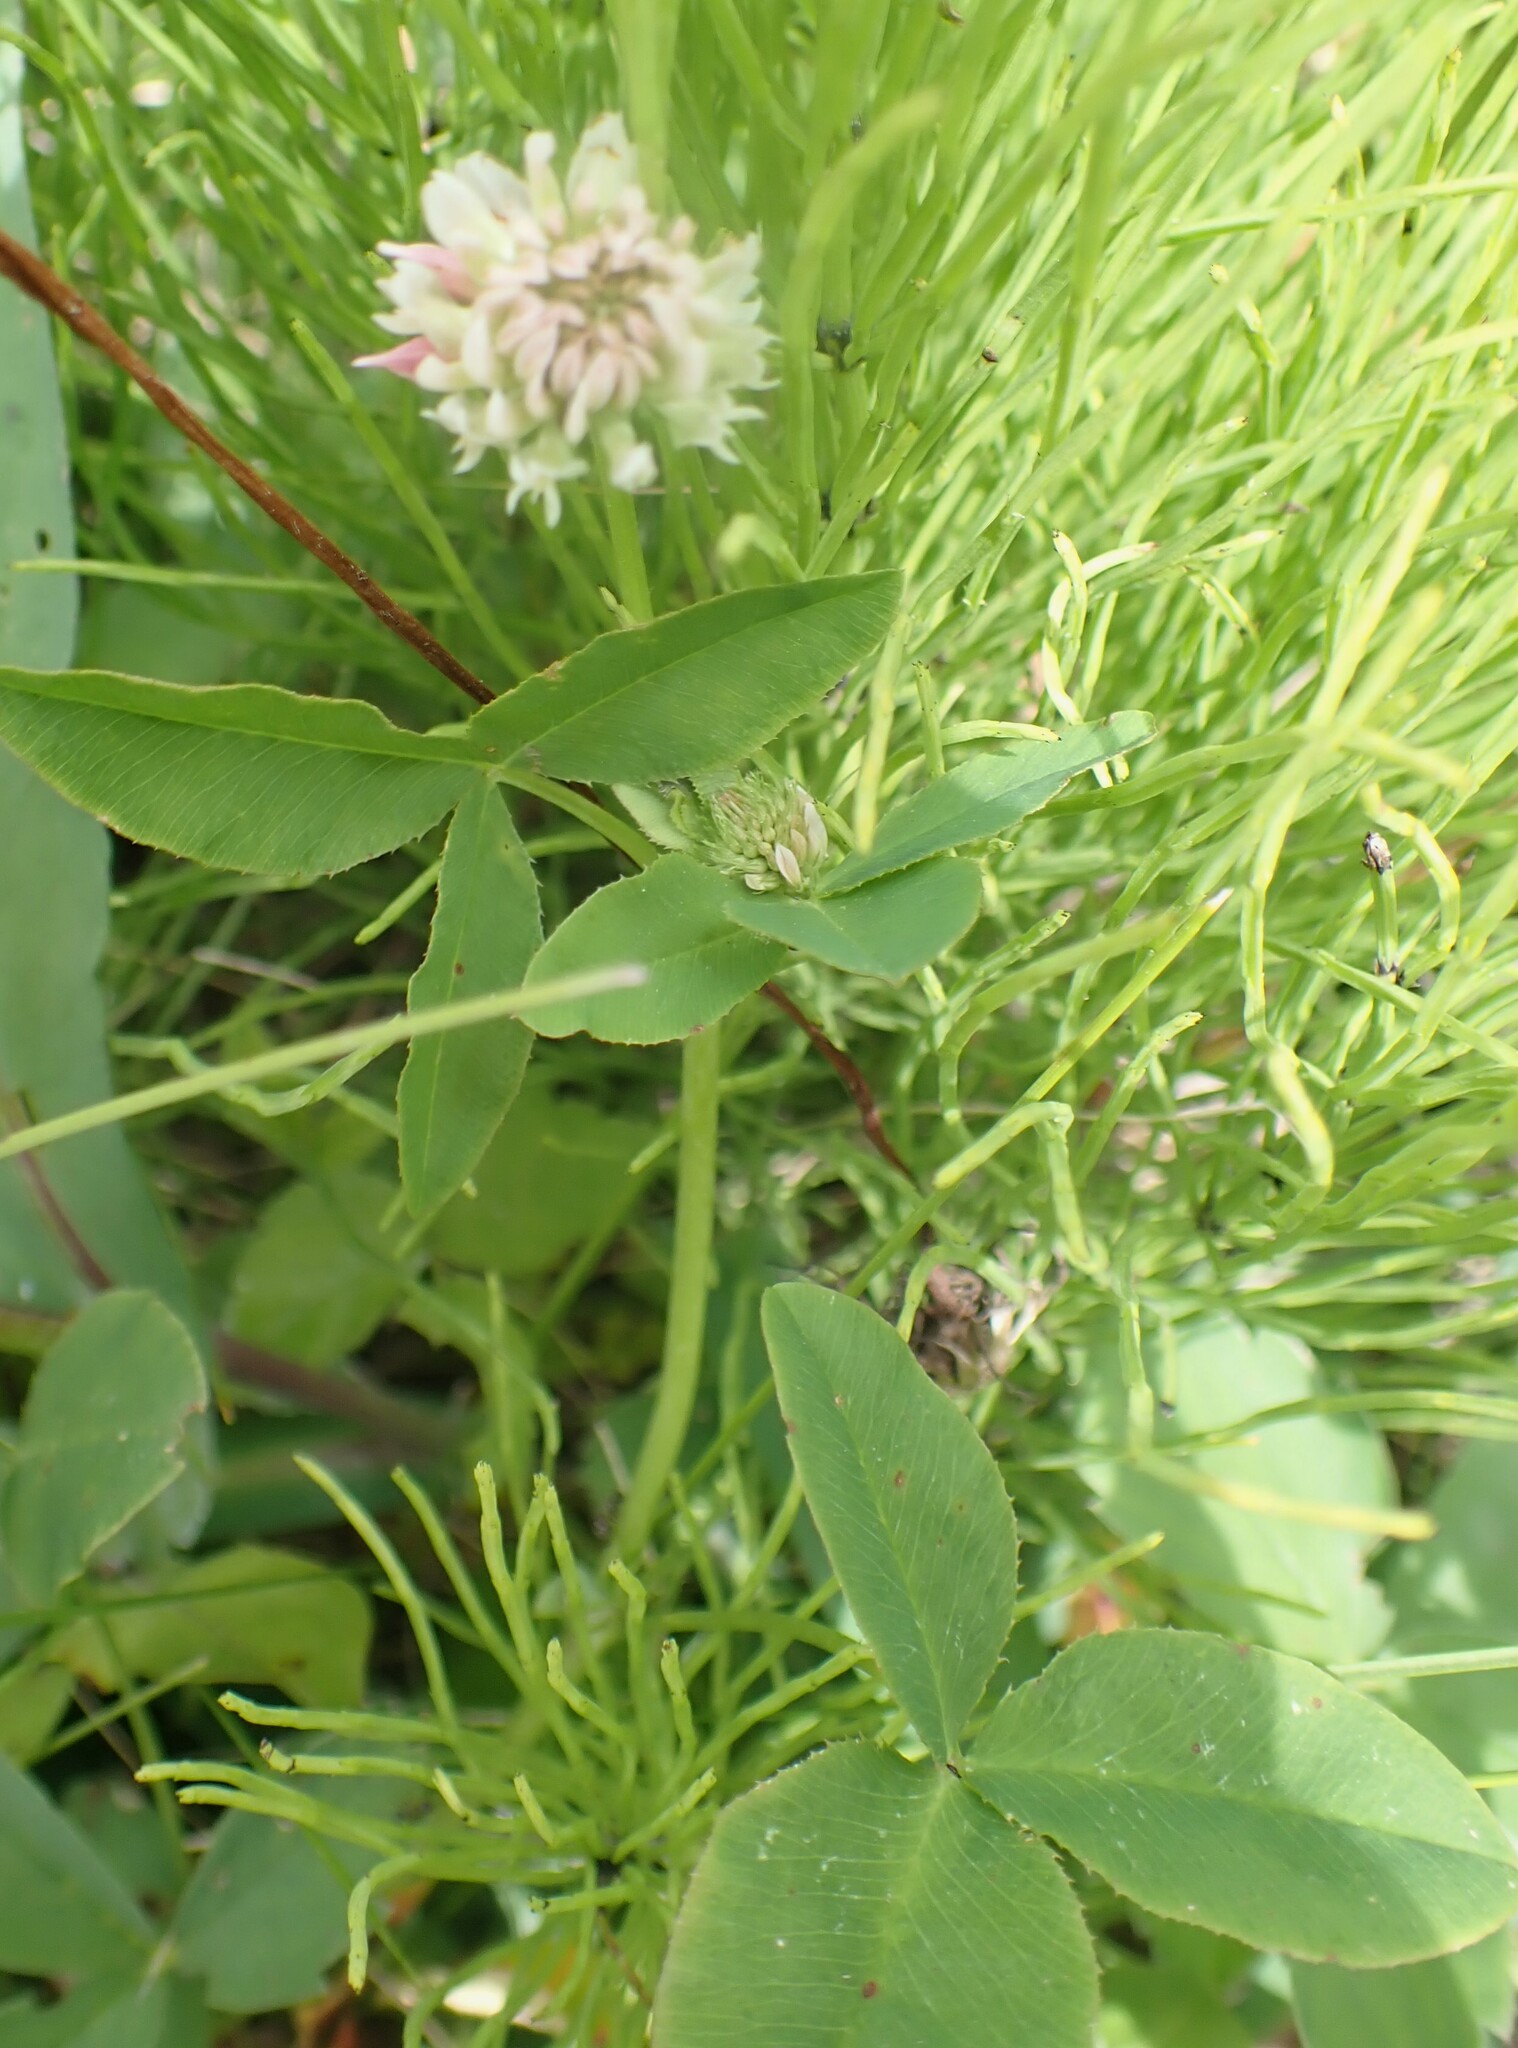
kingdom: Plantae
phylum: Tracheophyta
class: Magnoliopsida
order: Fabales
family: Fabaceae
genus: Trifolium
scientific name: Trifolium hybridum
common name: Alsike clover
